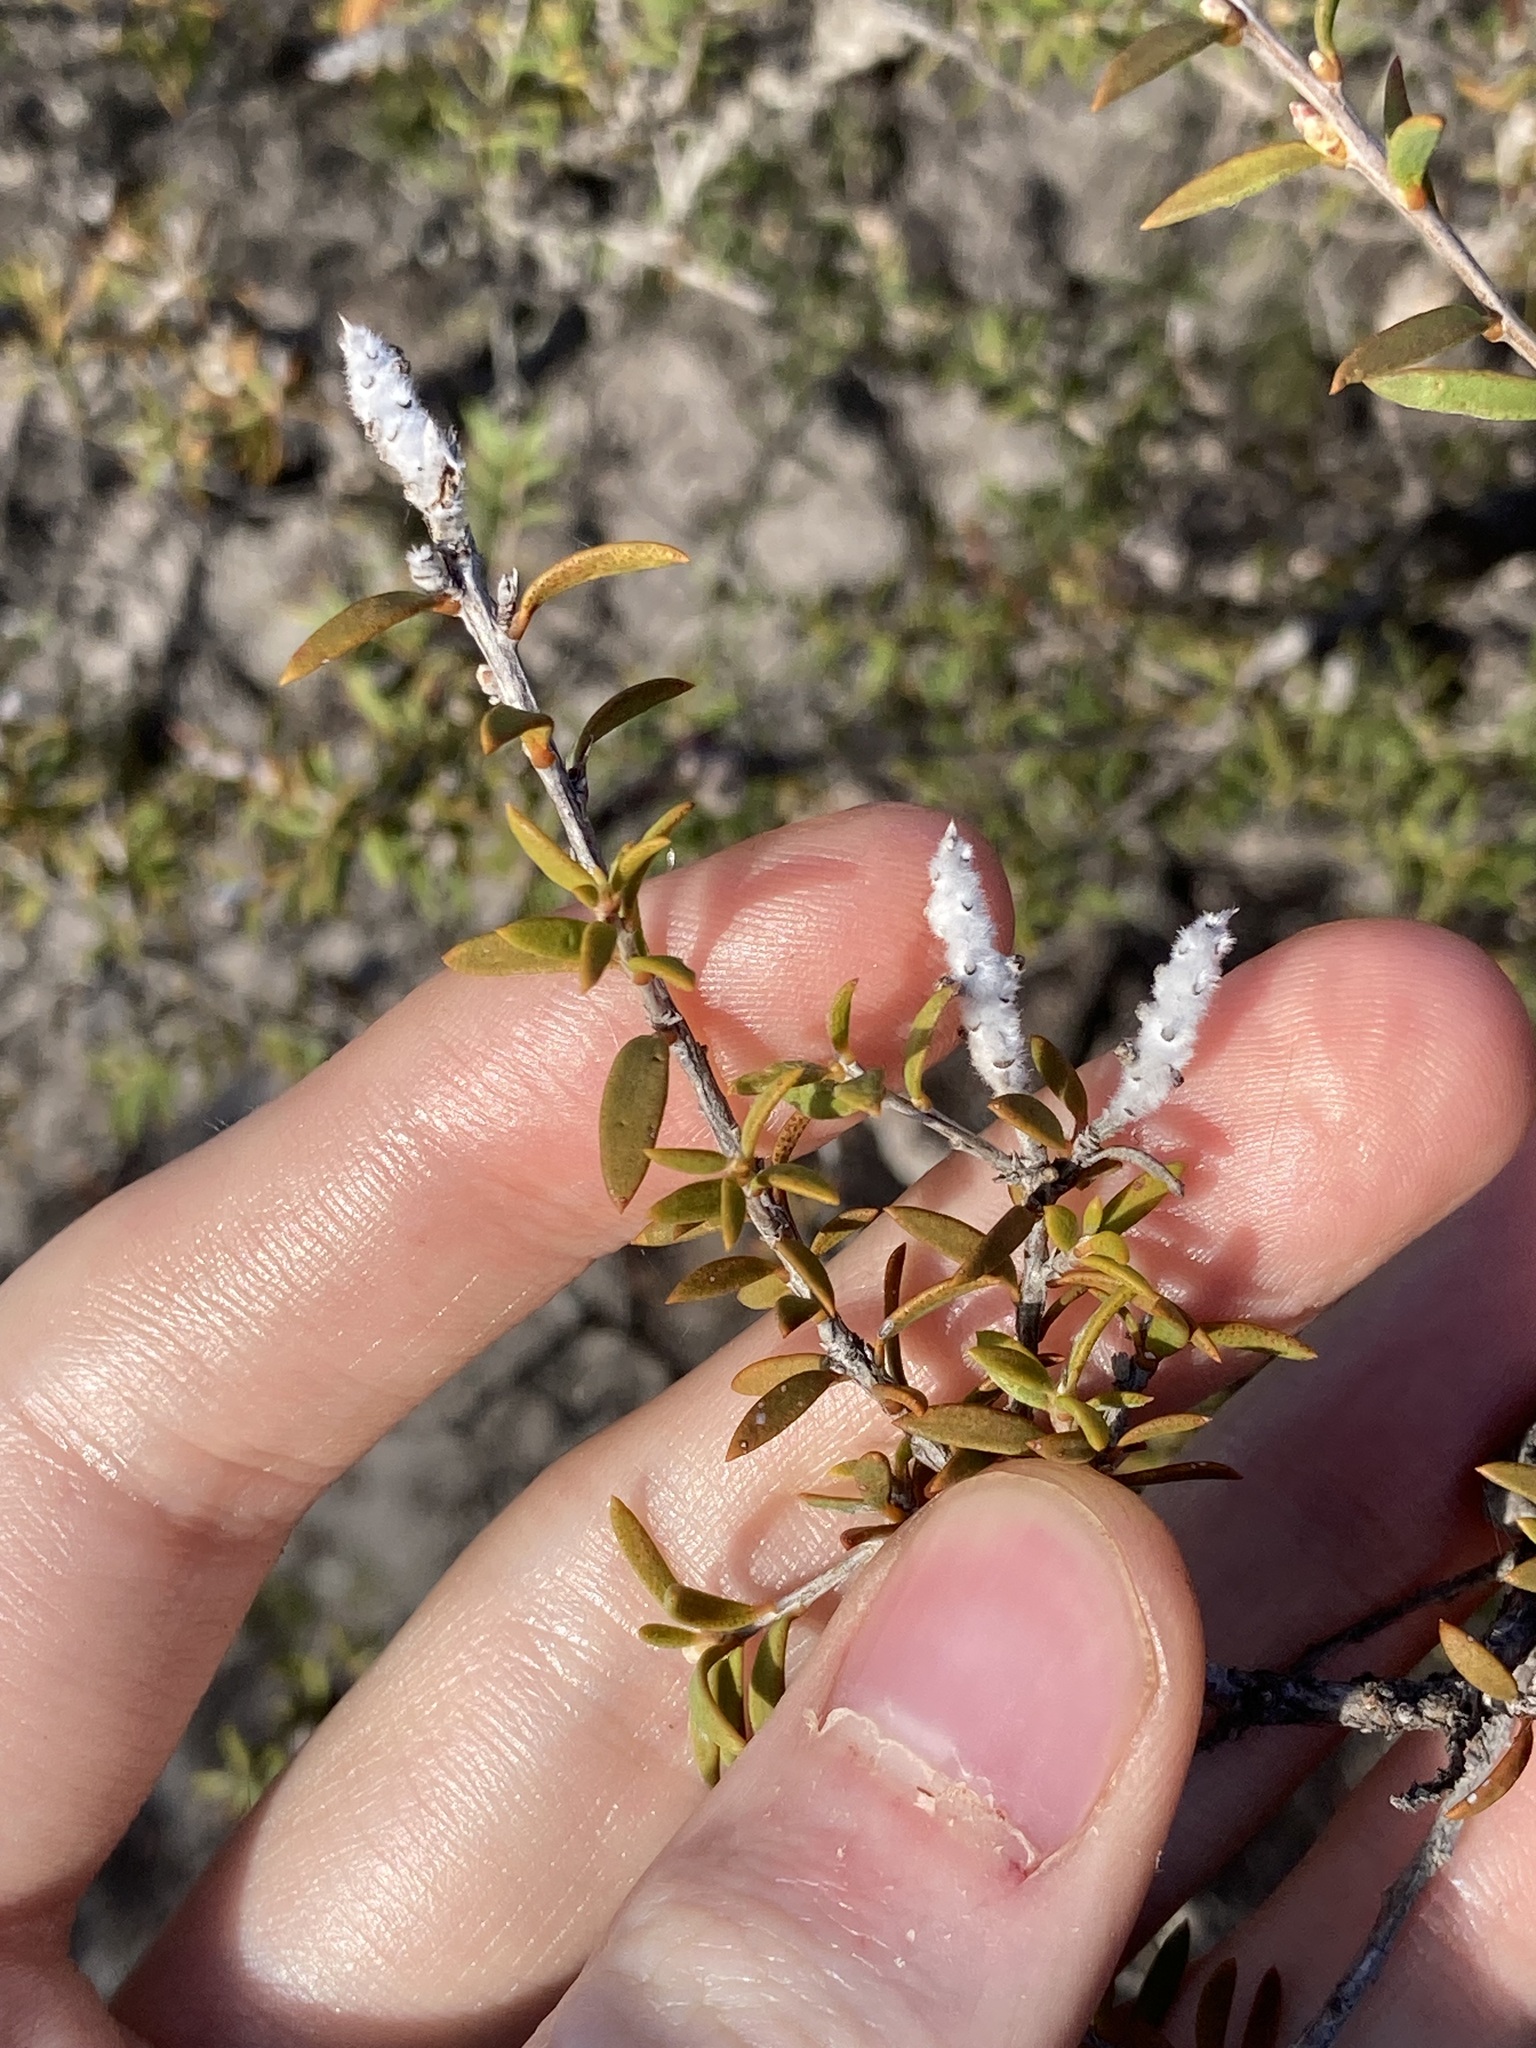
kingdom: Plantae
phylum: Tracheophyta
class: Magnoliopsida
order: Myrtales
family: Myrtaceae
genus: Melaleuca
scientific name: Melaleuca striata
